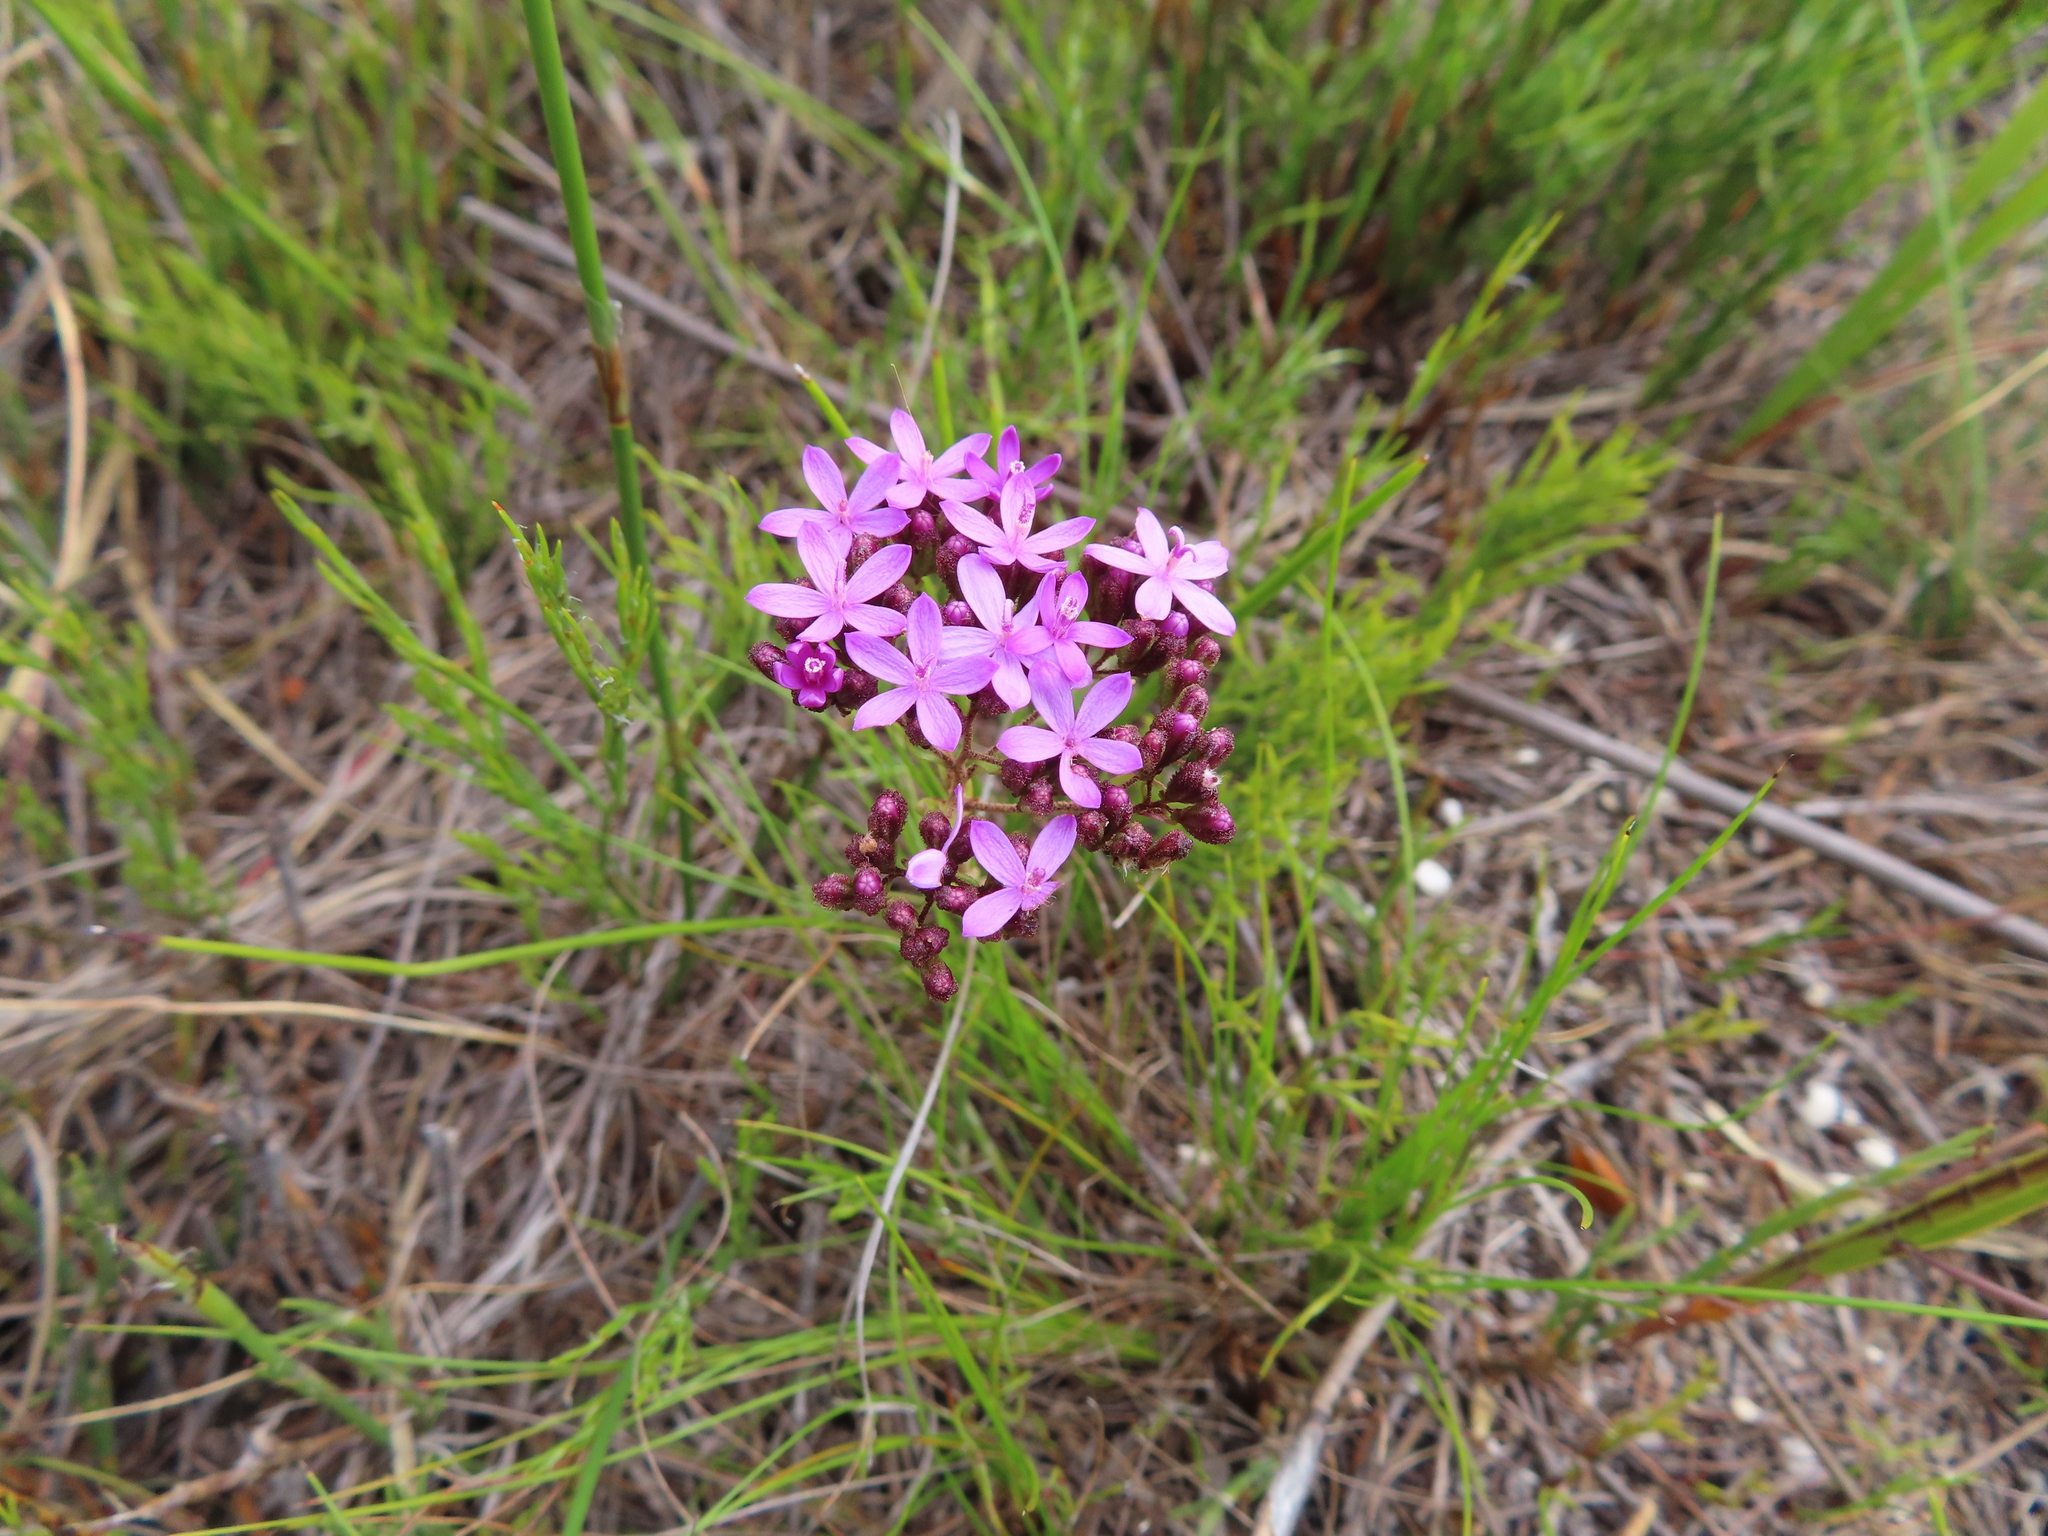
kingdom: Plantae
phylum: Tracheophyta
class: Magnoliopsida
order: Asterales
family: Asteraceae
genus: Corymbium
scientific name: Corymbium africanum
